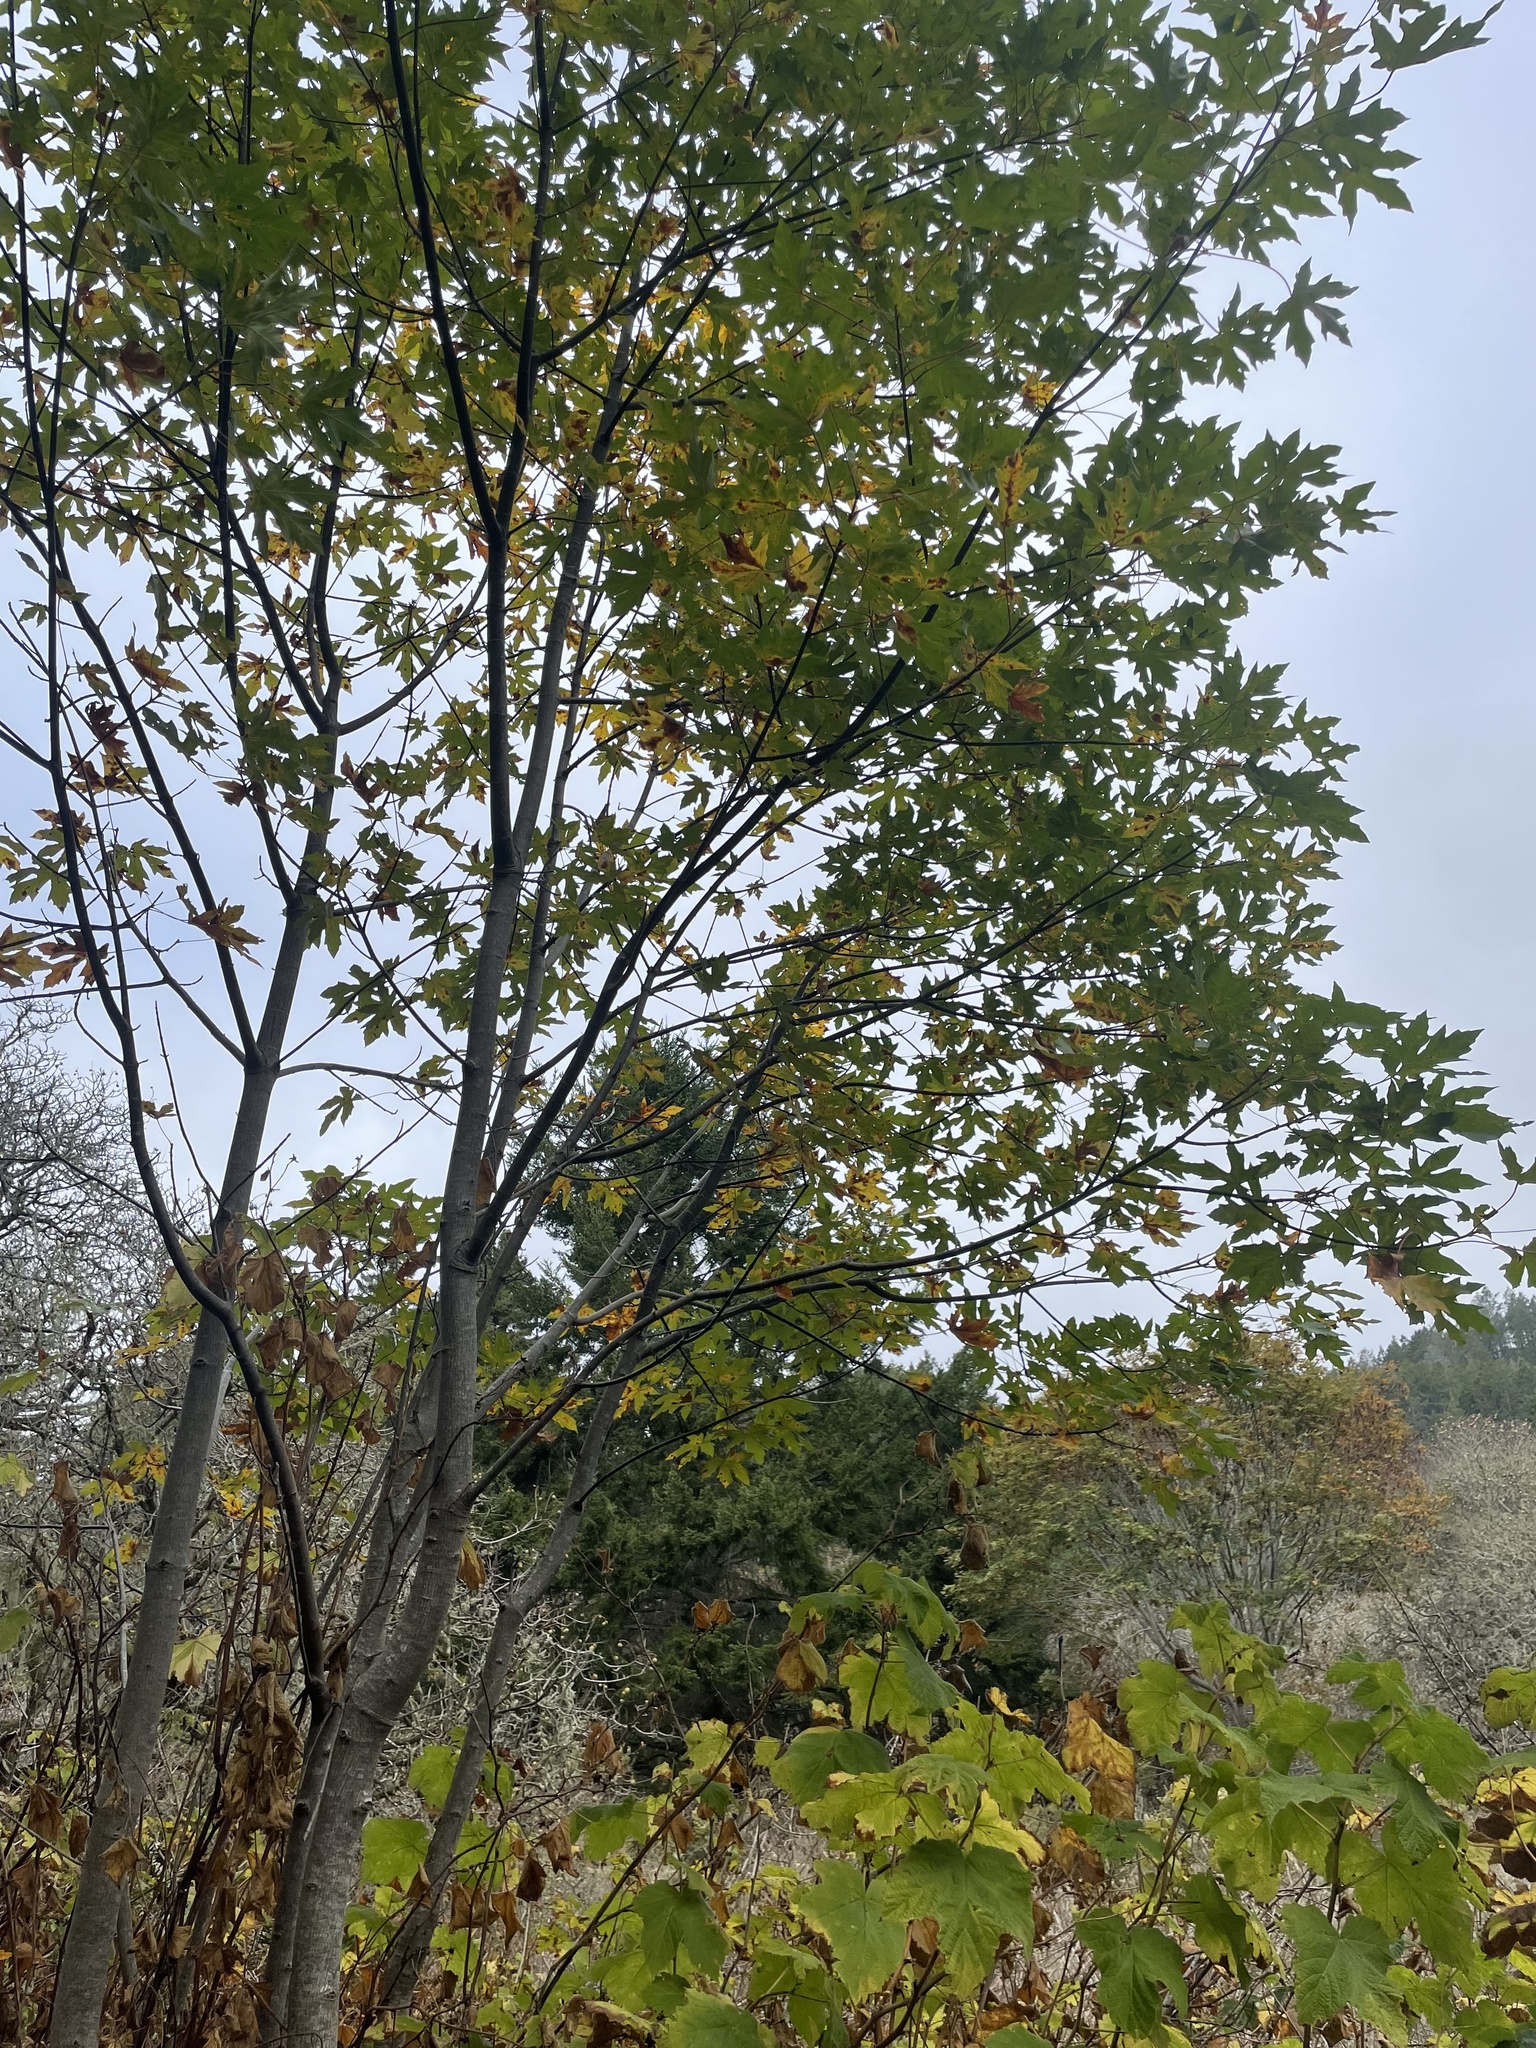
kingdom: Plantae
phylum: Tracheophyta
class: Magnoliopsida
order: Proteales
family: Platanaceae
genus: Platanus
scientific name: Platanus racemosa
